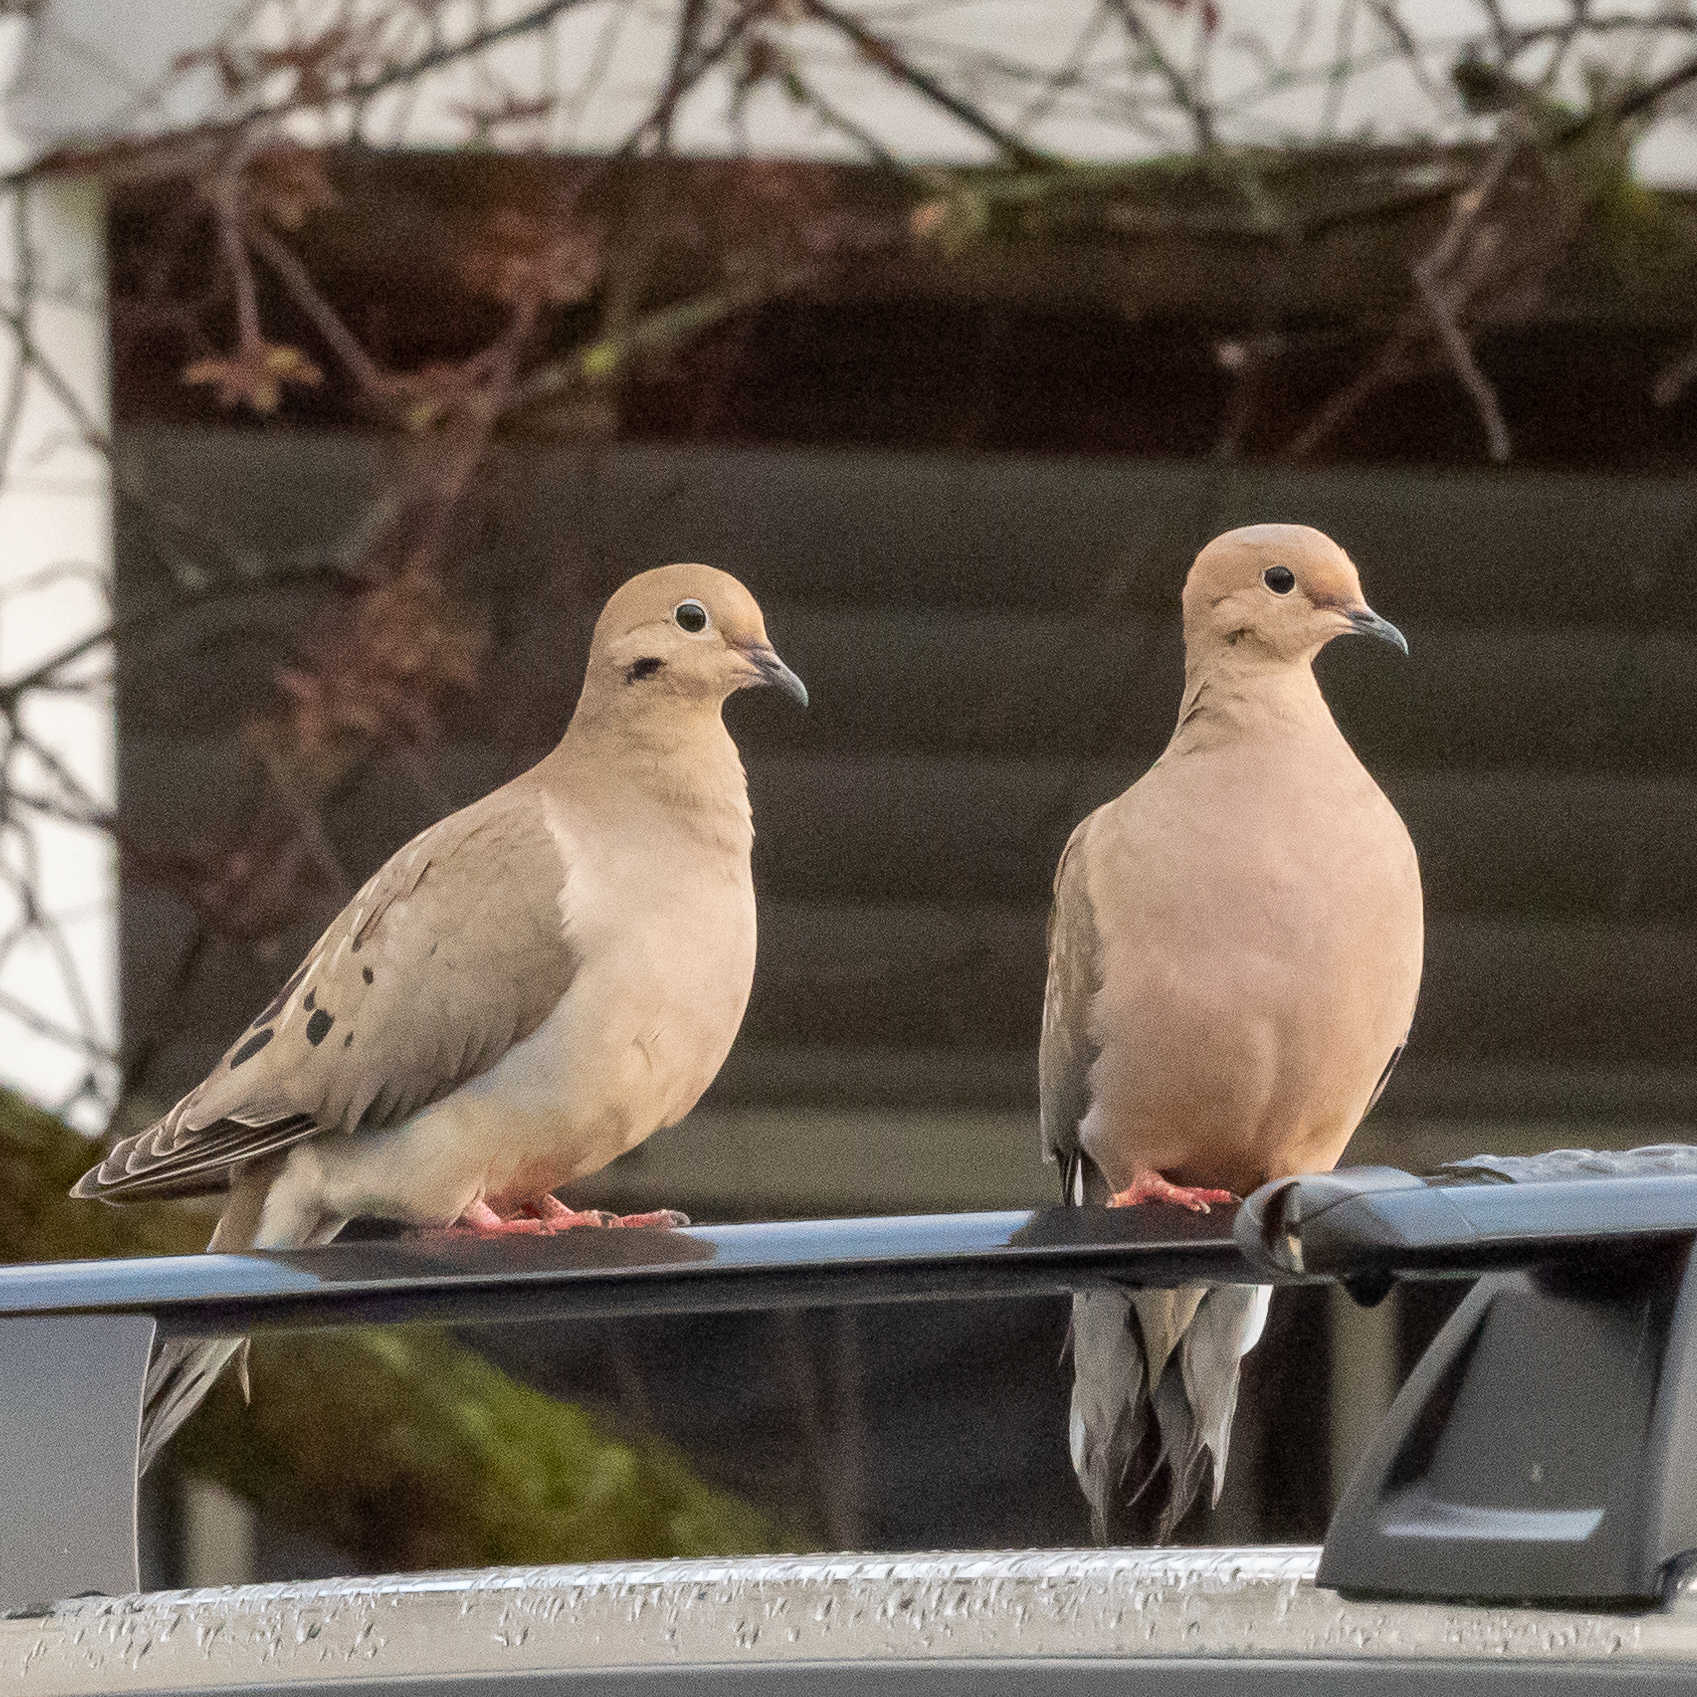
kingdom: Animalia
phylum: Chordata
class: Aves
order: Columbiformes
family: Columbidae
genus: Zenaida
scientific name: Zenaida macroura
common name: Mourning dove
